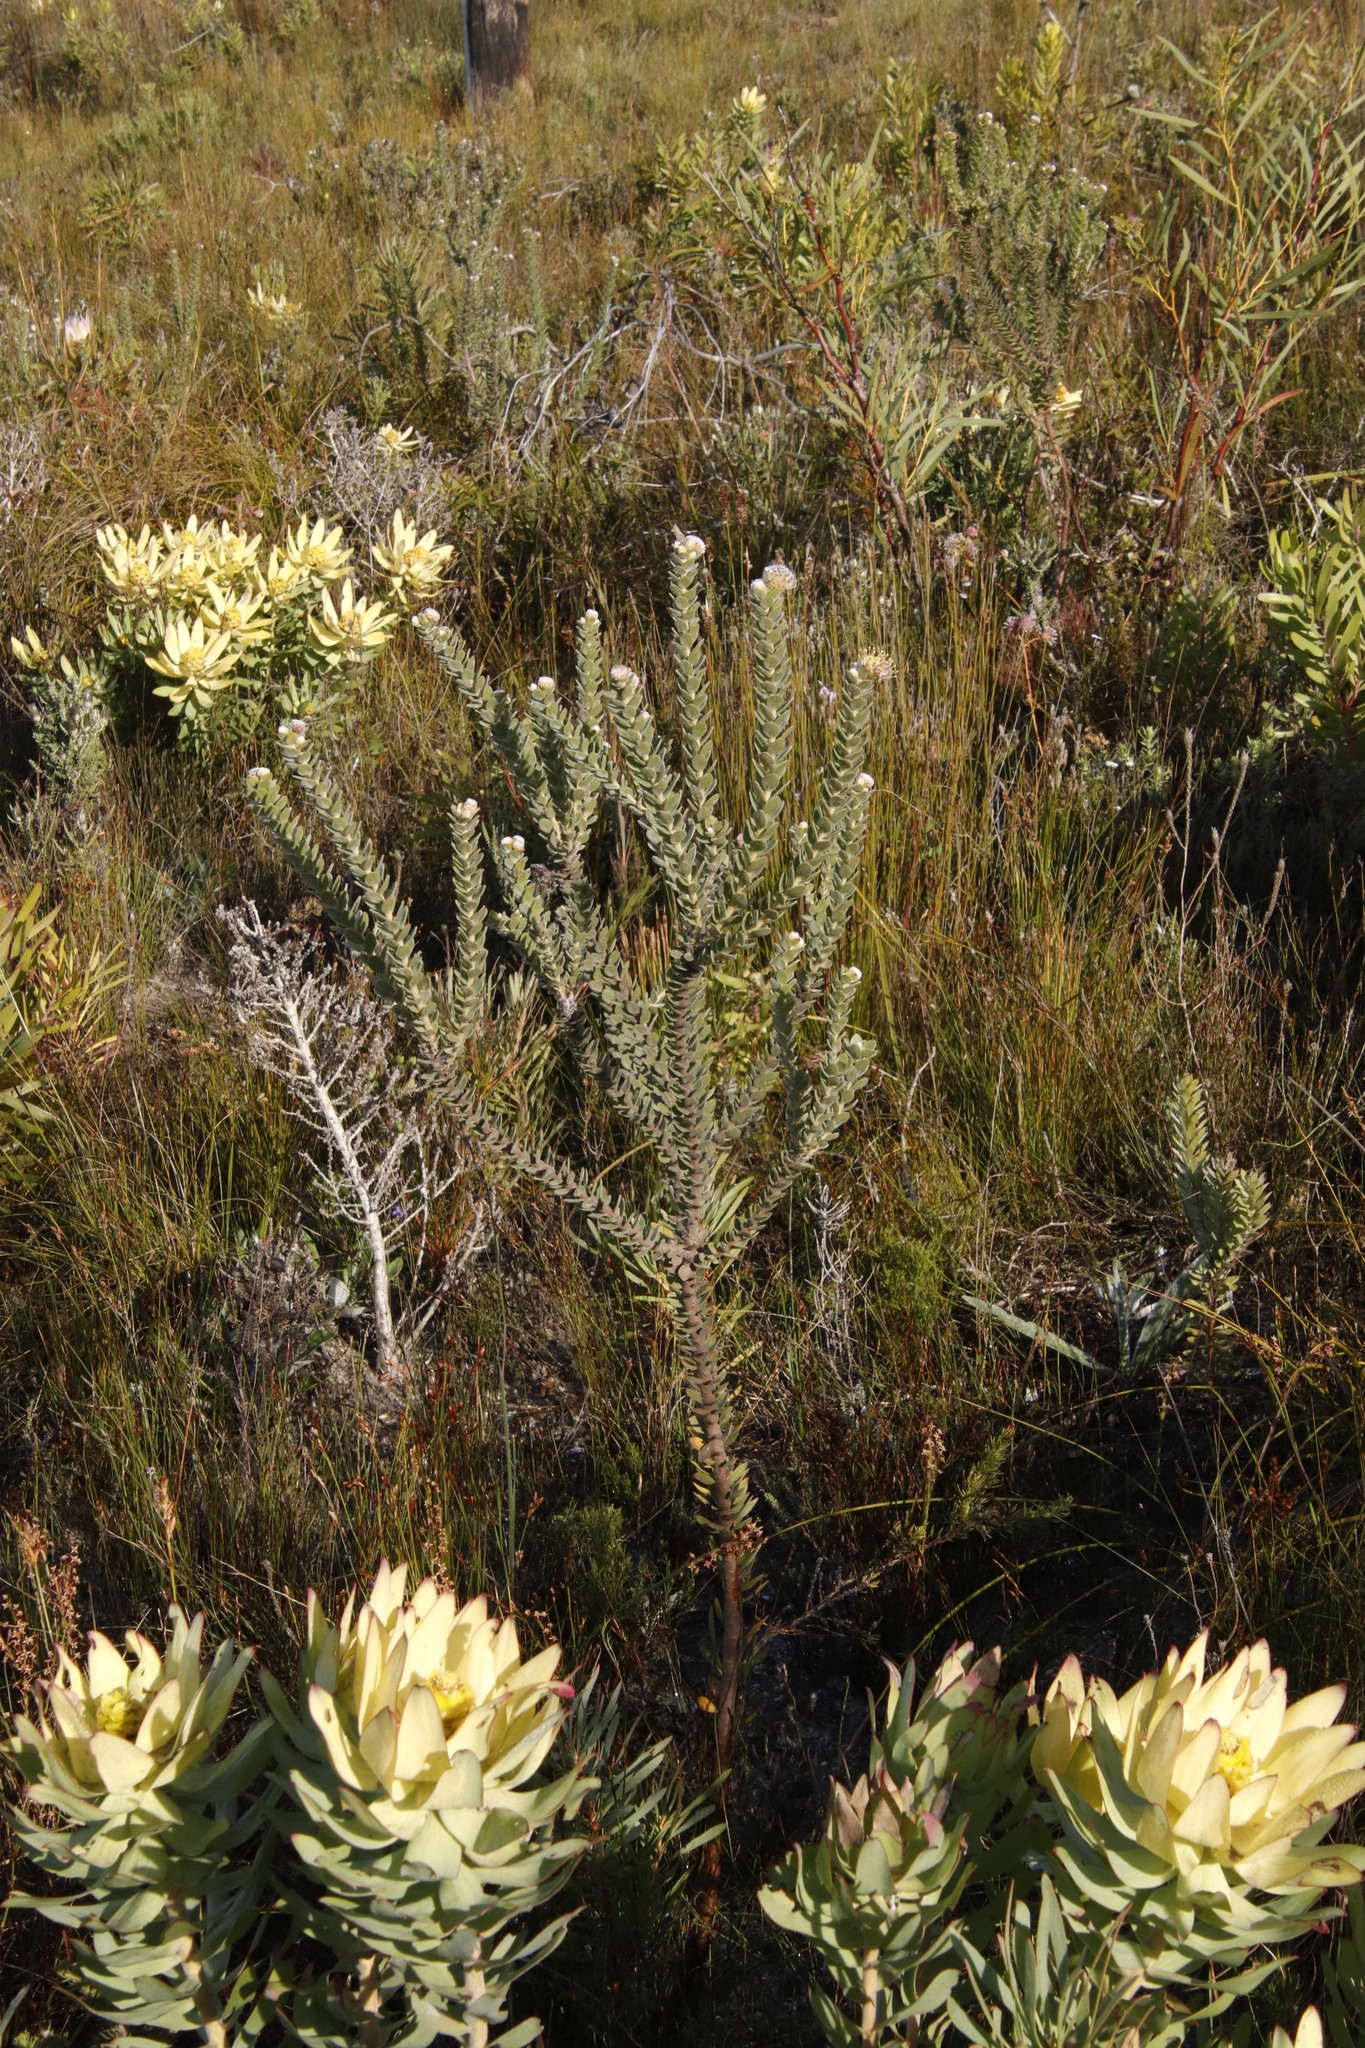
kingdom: Plantae
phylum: Tracheophyta
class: Magnoliopsida
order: Proteales
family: Proteaceae
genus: Leucospermum
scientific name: Leucospermum truncatulum
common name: Oval-leaf pincushion
